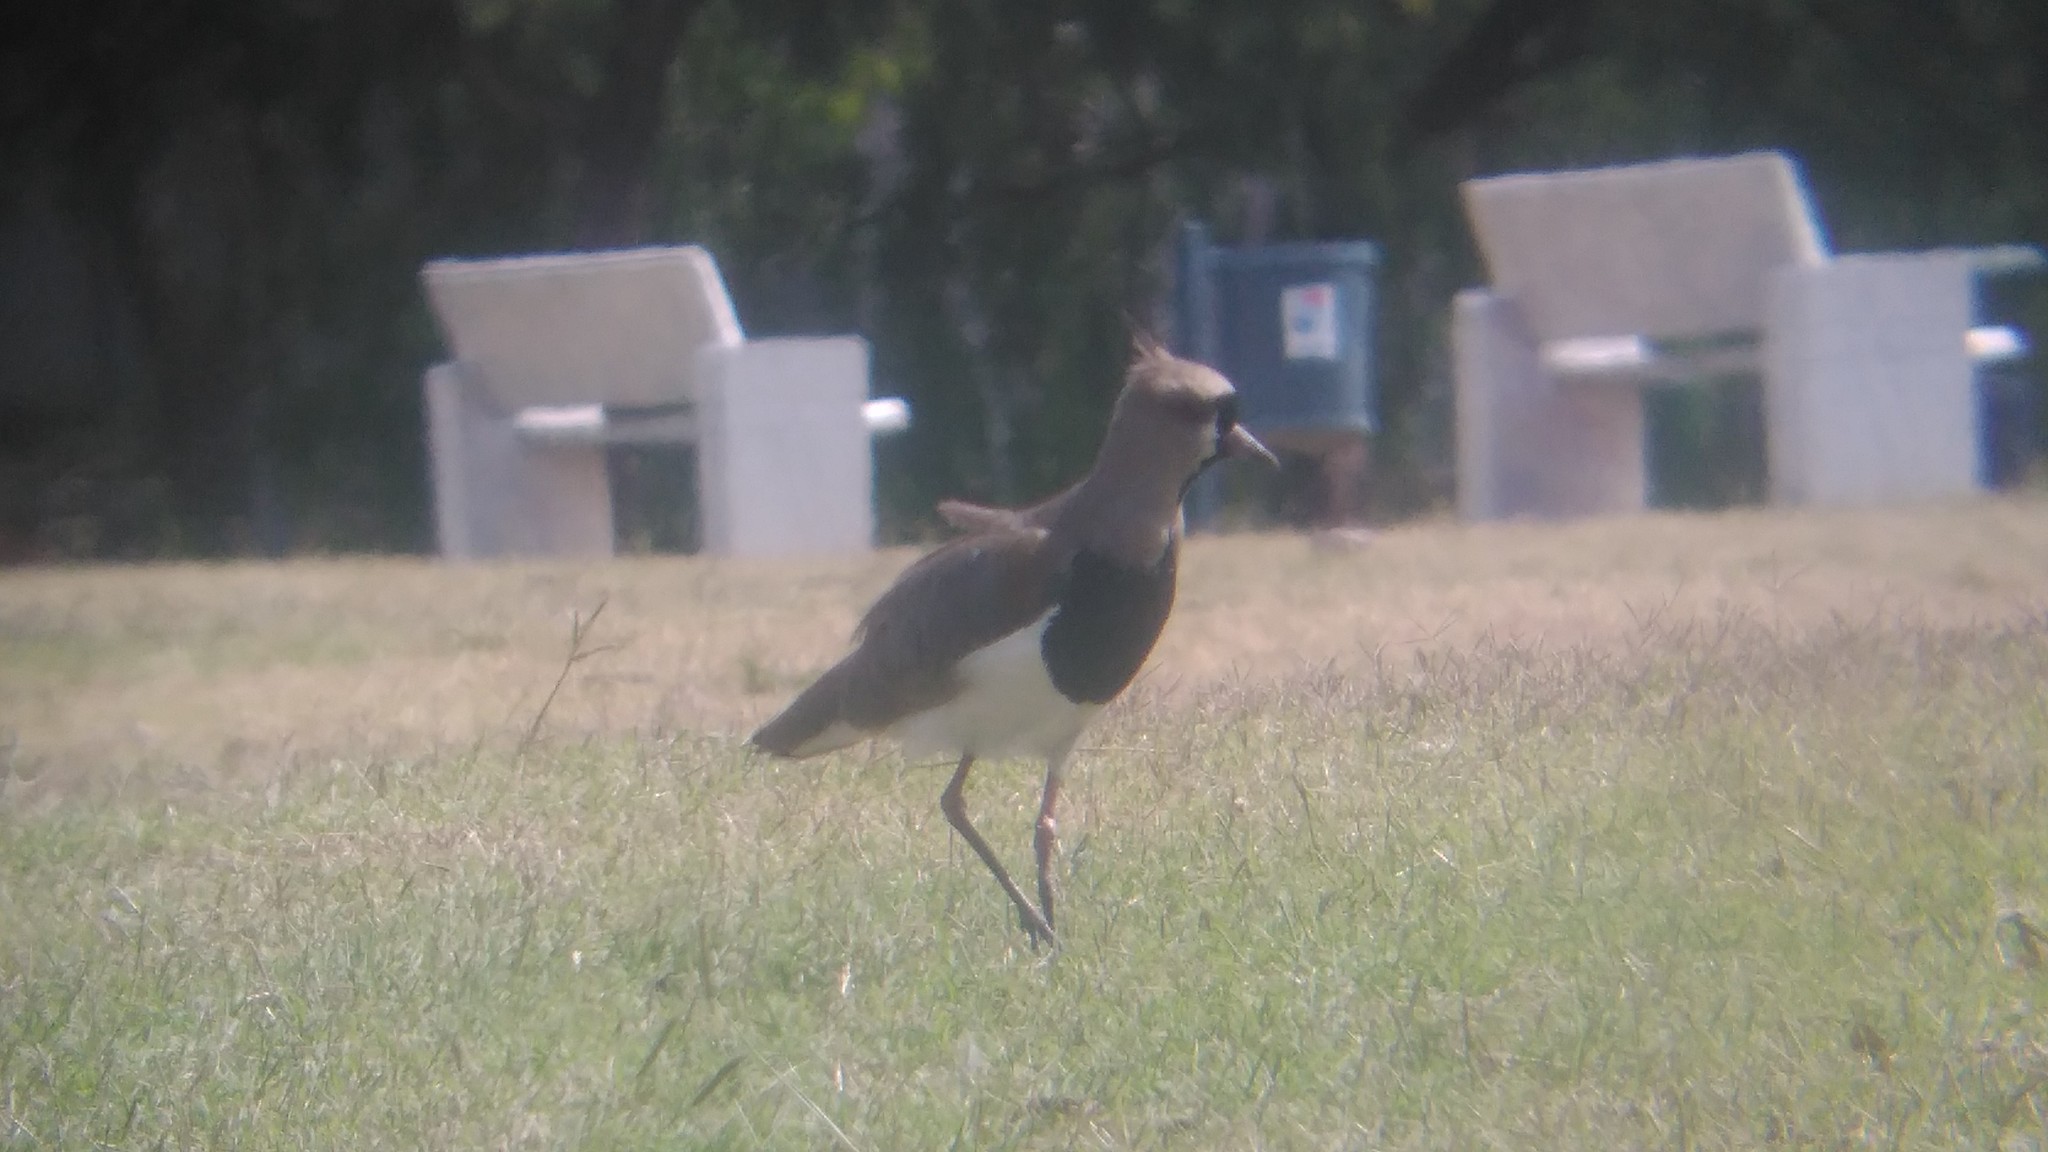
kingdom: Animalia
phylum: Chordata
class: Aves
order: Charadriiformes
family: Charadriidae
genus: Vanellus
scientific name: Vanellus chilensis
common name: Southern lapwing
